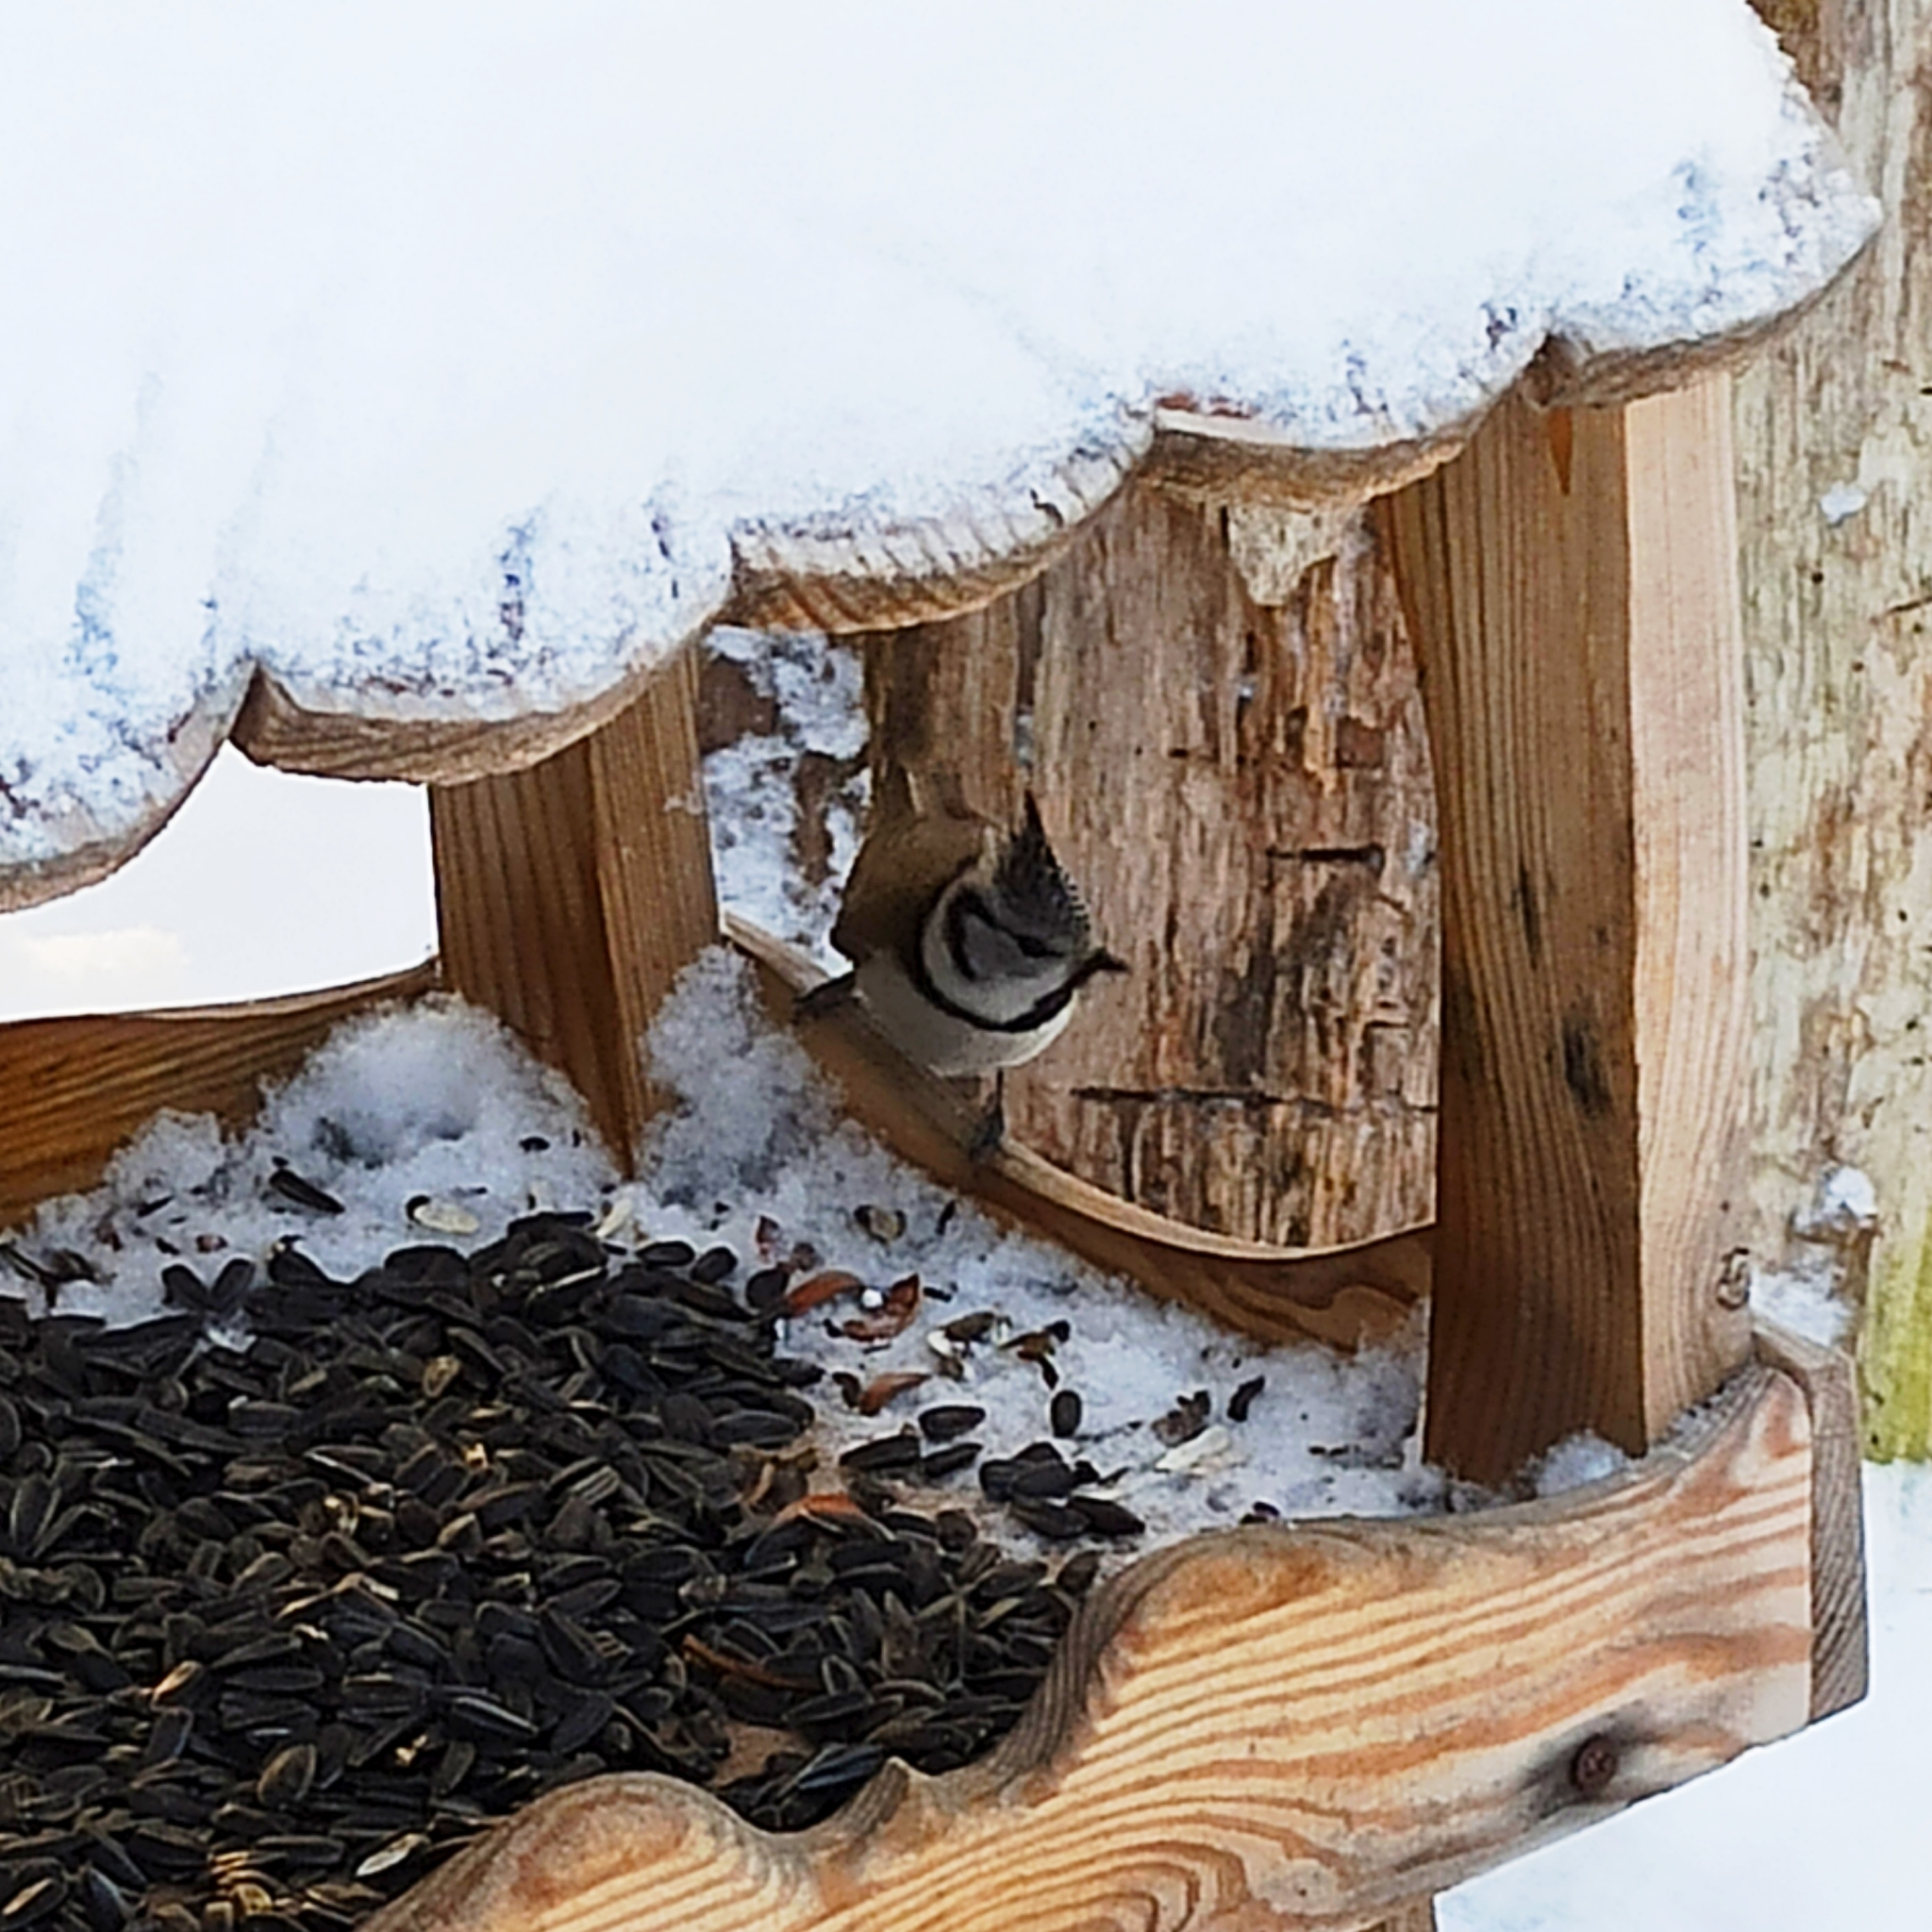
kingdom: Animalia
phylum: Chordata
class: Aves
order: Passeriformes
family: Paridae
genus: Lophophanes
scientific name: Lophophanes cristatus
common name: European crested tit
